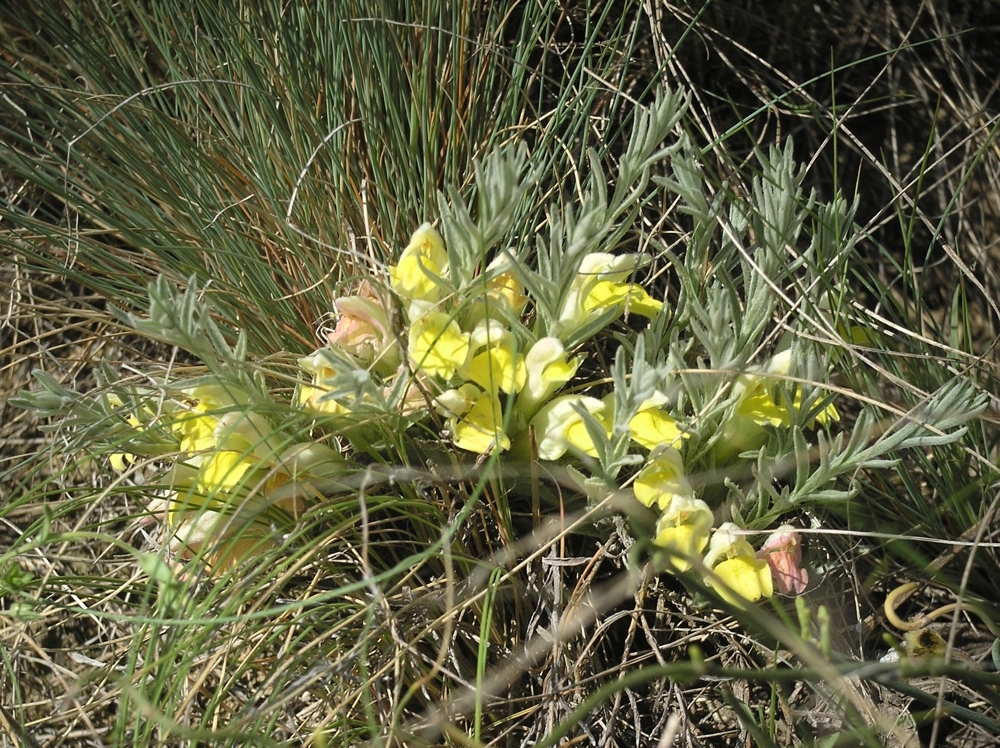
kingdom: Plantae
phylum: Tracheophyta
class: Magnoliopsida
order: Lamiales
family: Orobanchaceae
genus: Cymbaria
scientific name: Cymbaria borysthenica
